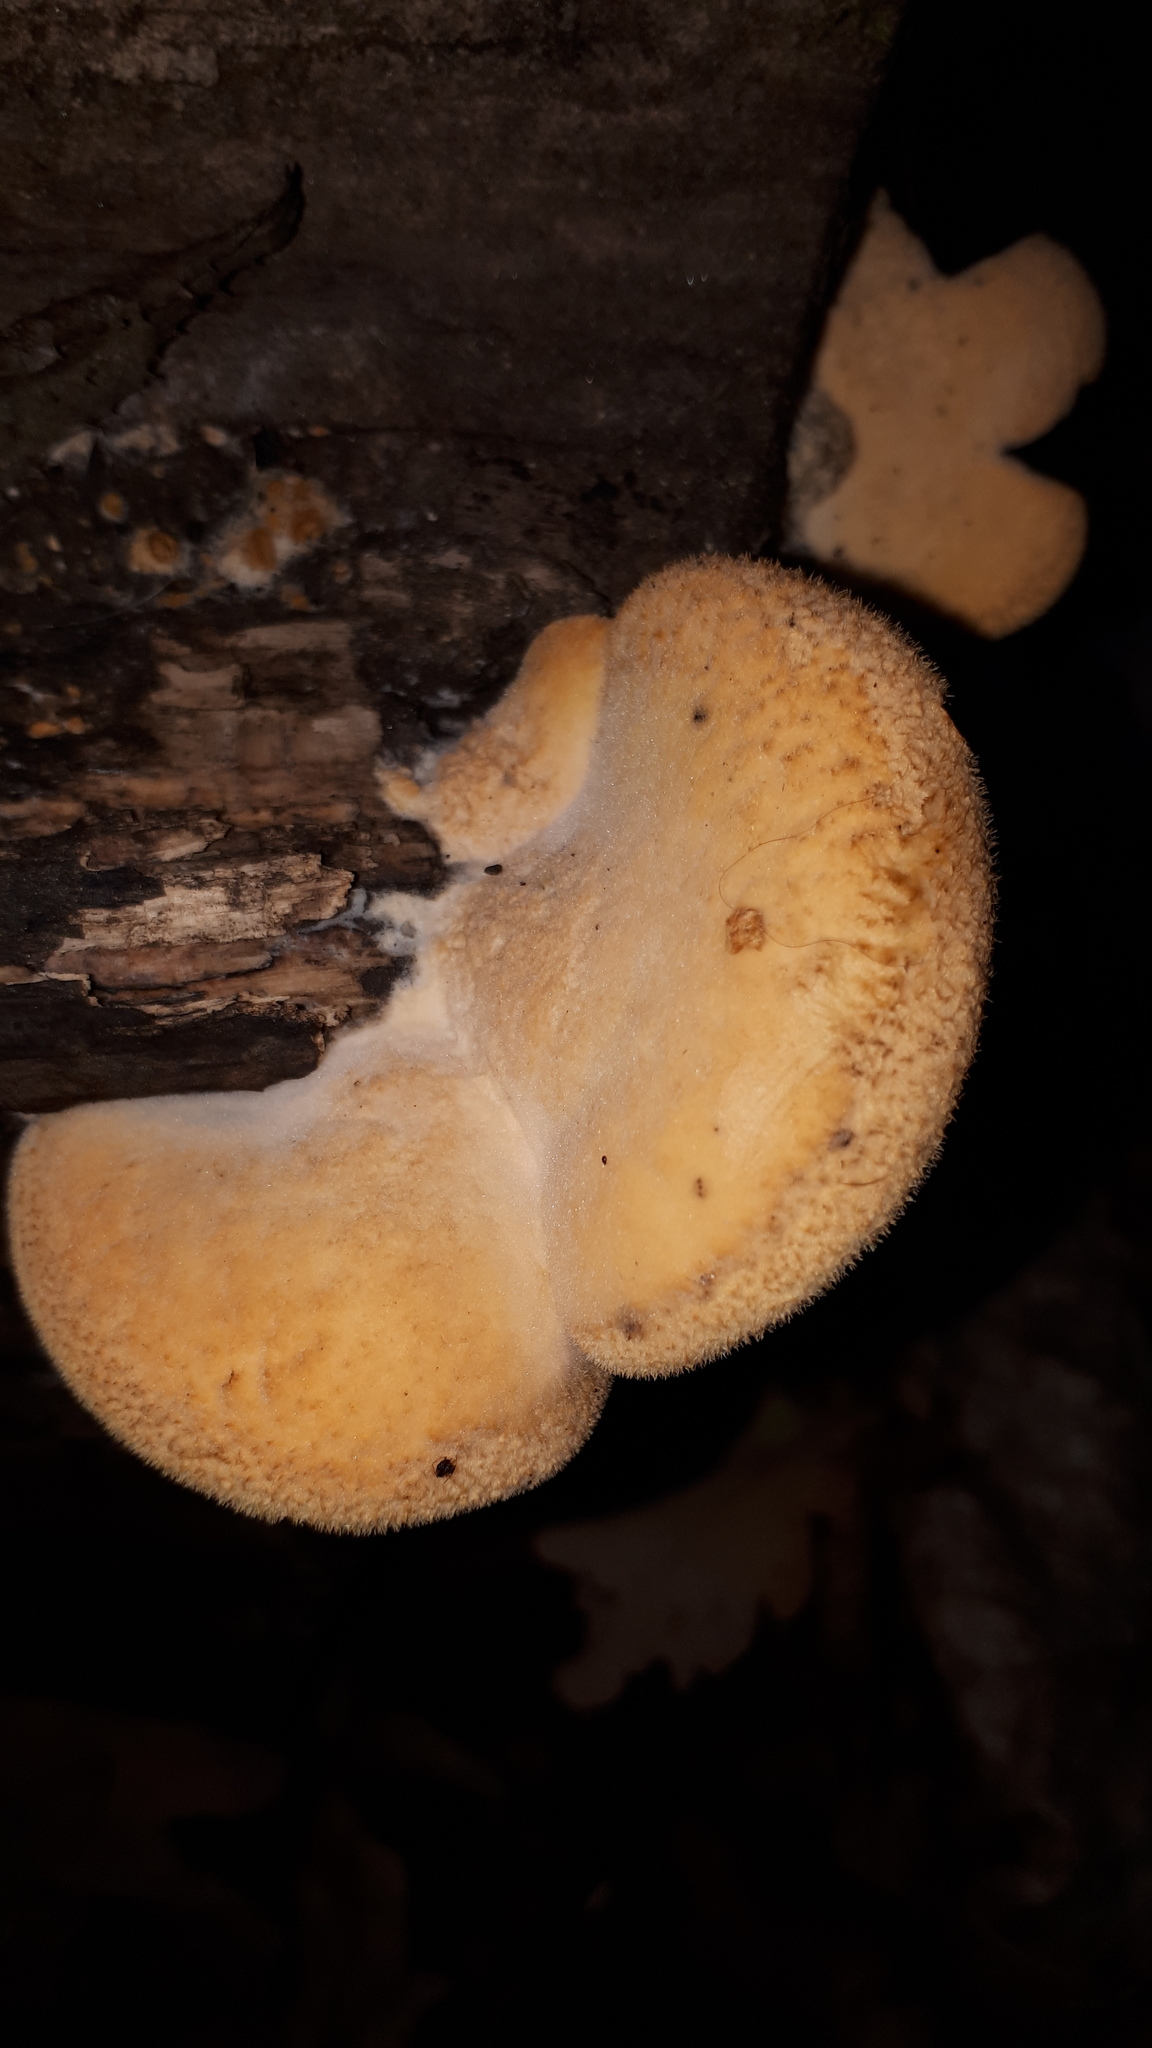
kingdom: Fungi
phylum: Basidiomycota
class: Agaricomycetes
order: Agaricales
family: Phyllotopsidaceae
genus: Phyllotopsis
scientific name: Phyllotopsis nidulans
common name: Orange mock oyster
